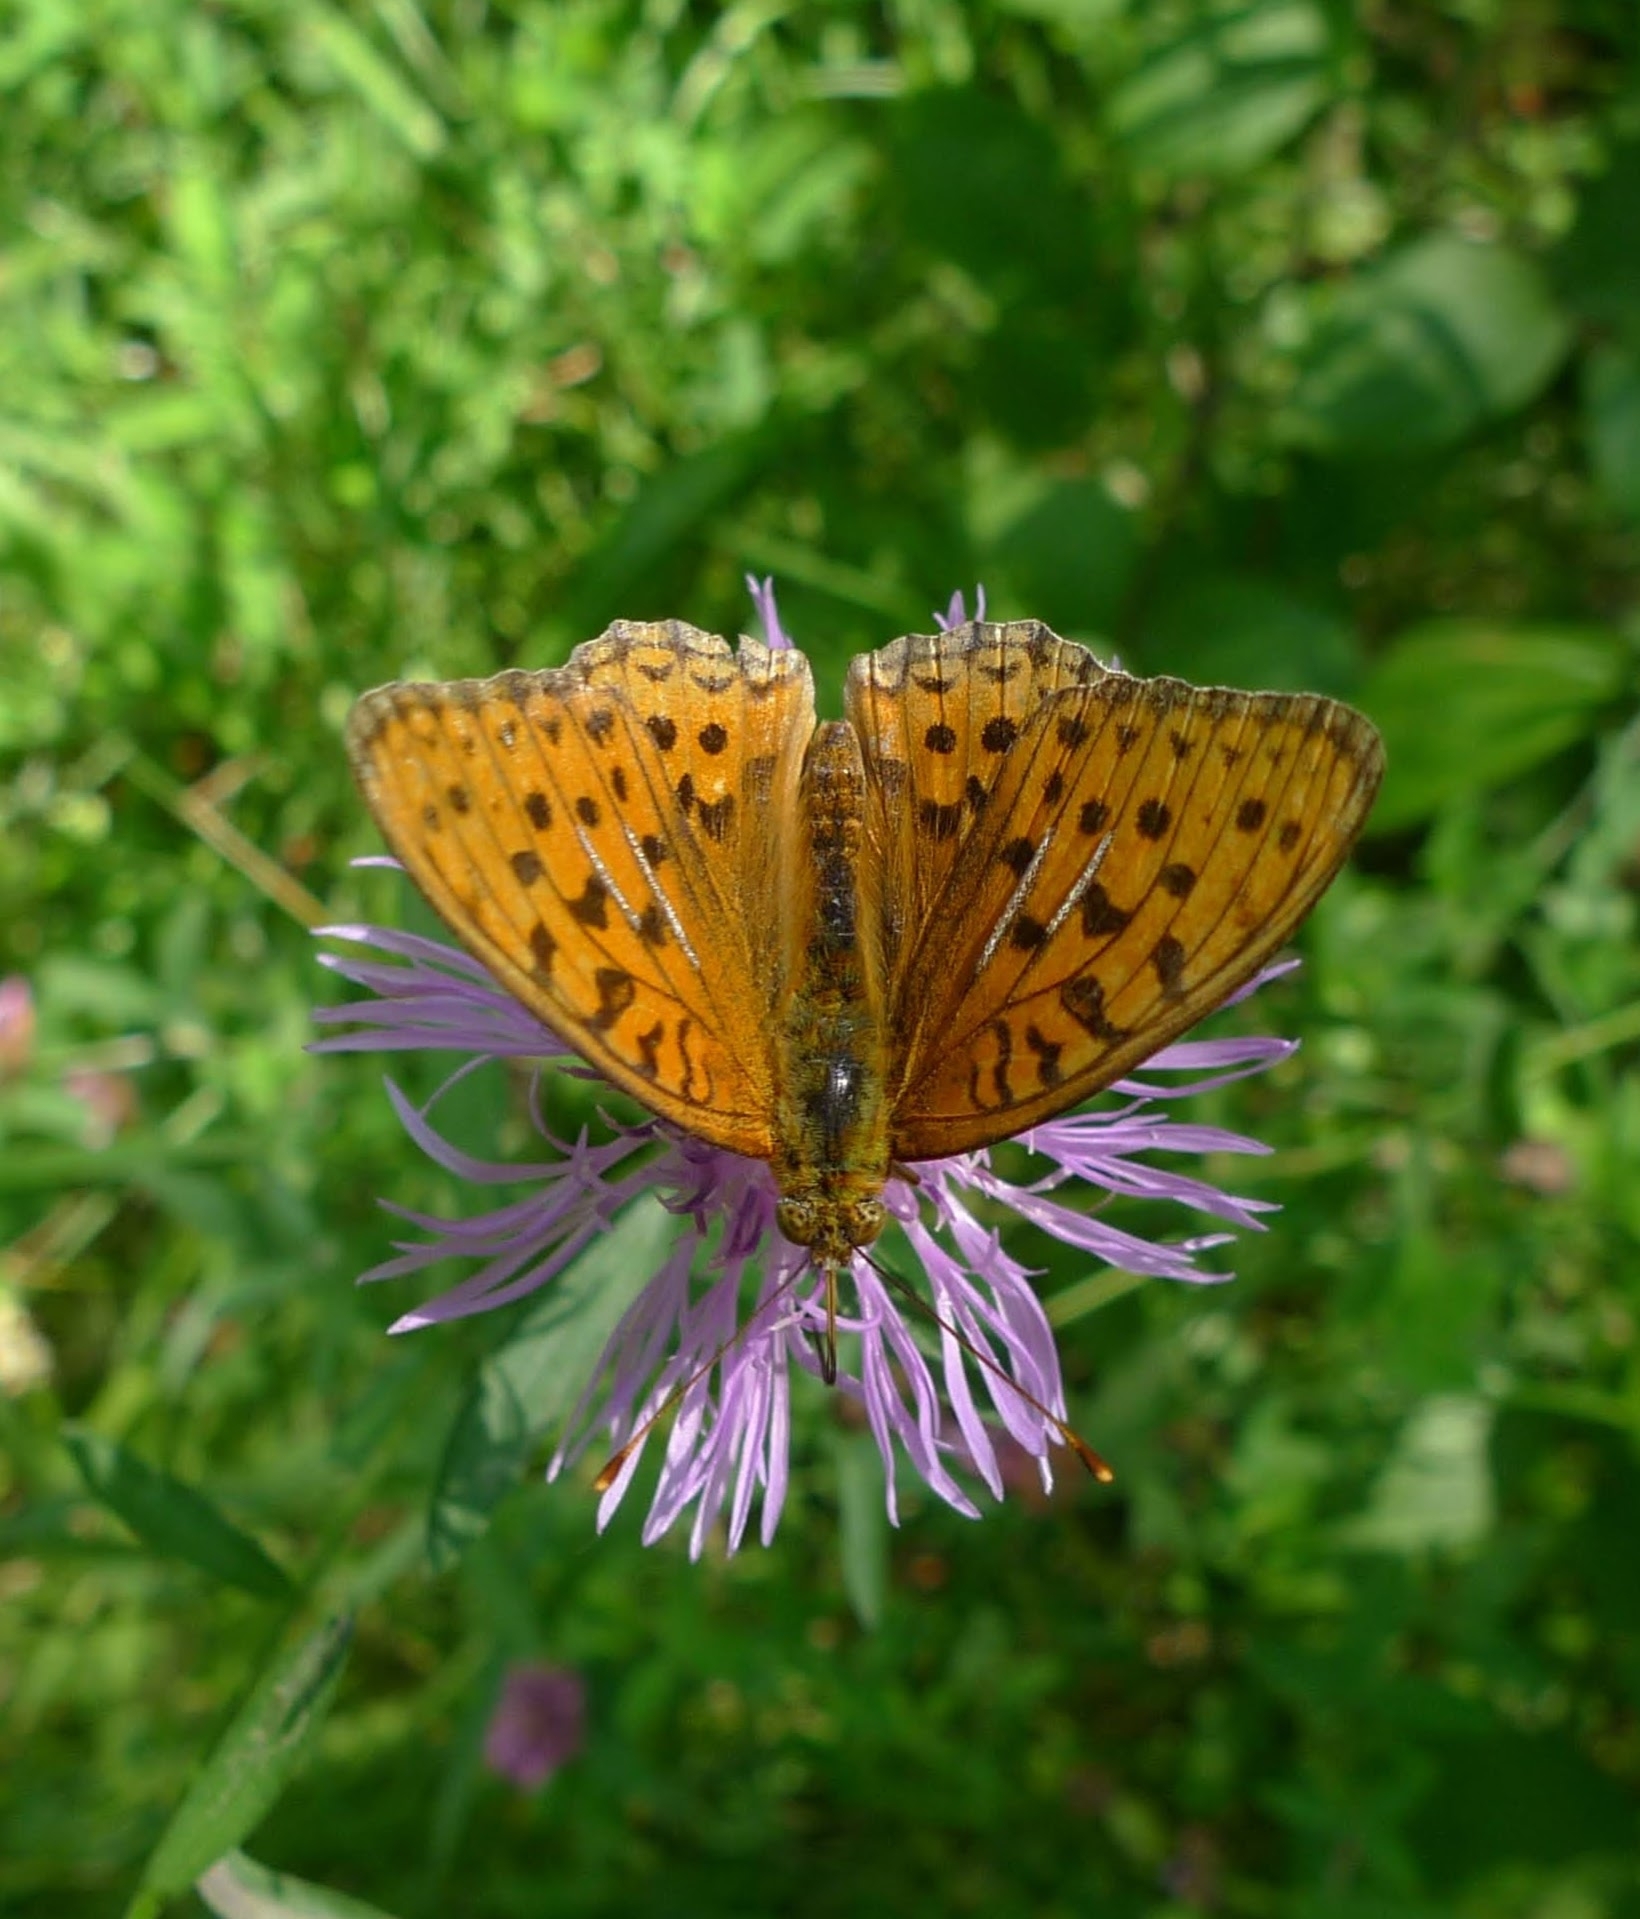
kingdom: Animalia
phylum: Arthropoda
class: Insecta
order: Lepidoptera
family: Nymphalidae
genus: Fabriciana
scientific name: Fabriciana adippe
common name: High brown fritillary
